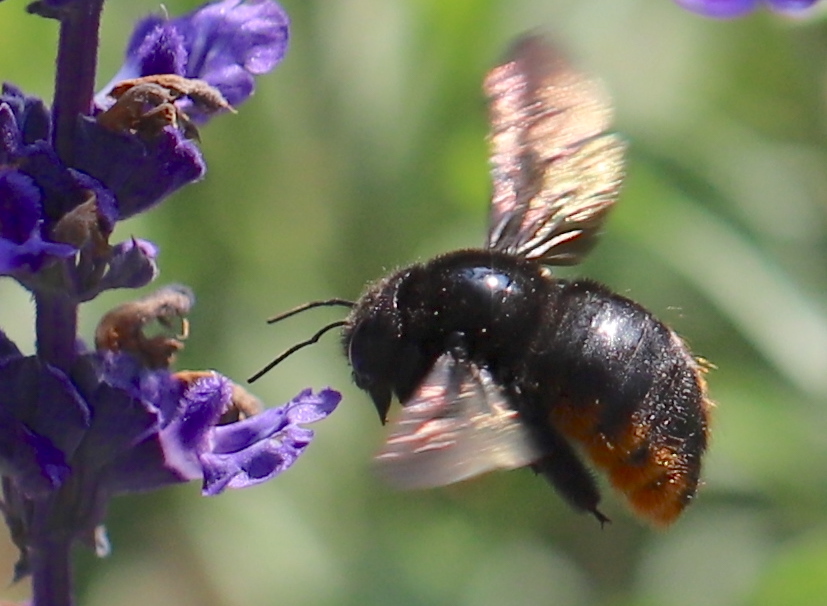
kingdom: Animalia
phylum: Arthropoda
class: Insecta
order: Hymenoptera
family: Apidae
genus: Xylocopa
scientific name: Xylocopa augusti
